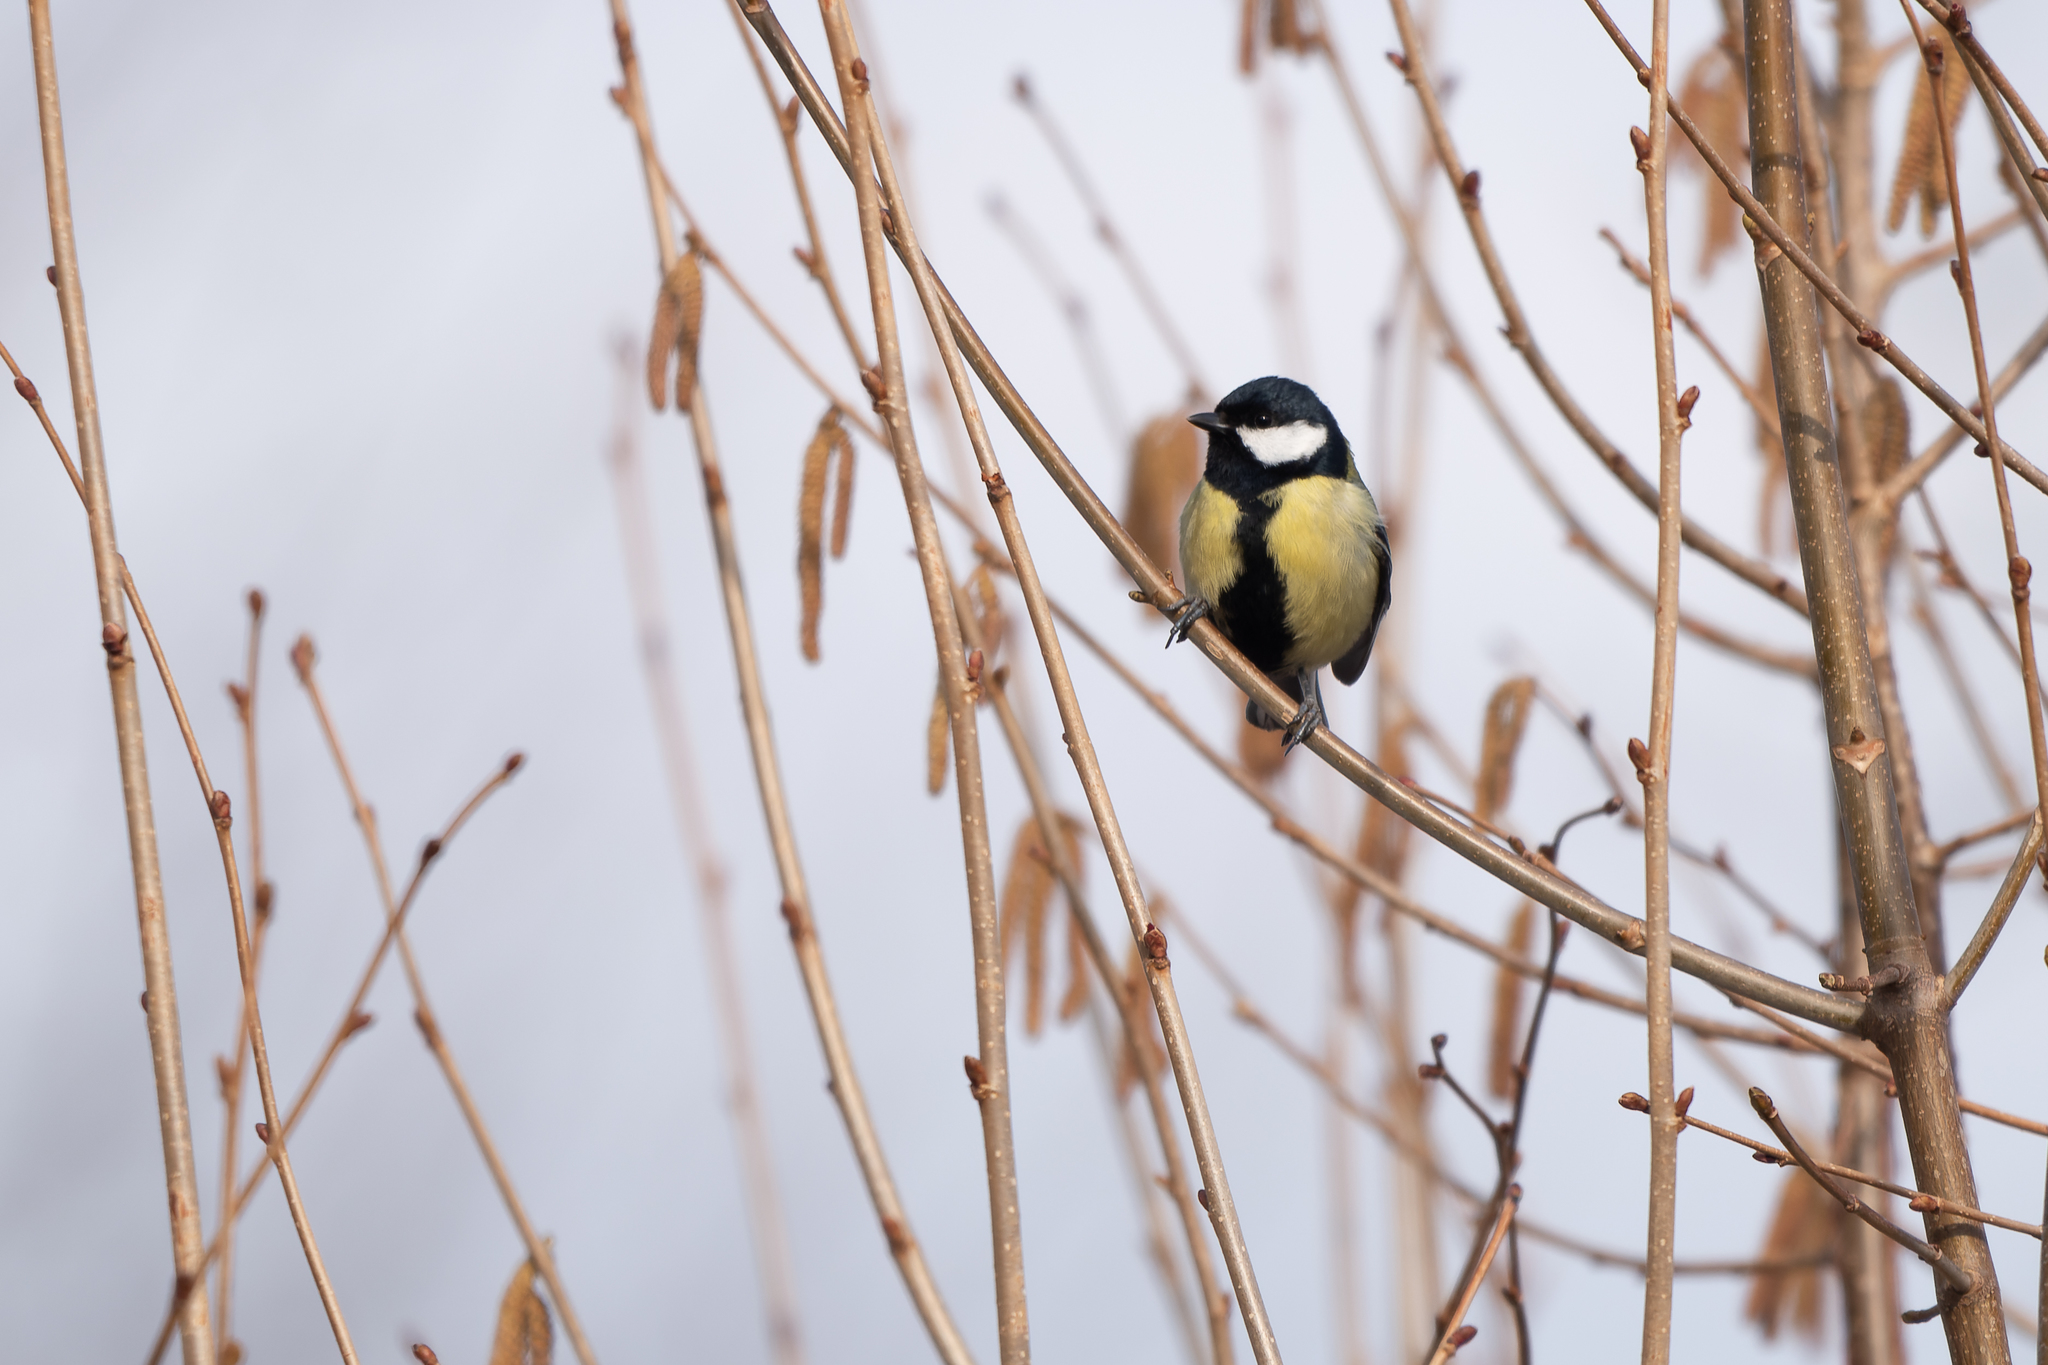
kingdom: Animalia
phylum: Chordata
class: Aves
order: Passeriformes
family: Paridae
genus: Parus
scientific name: Parus major
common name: Great tit
